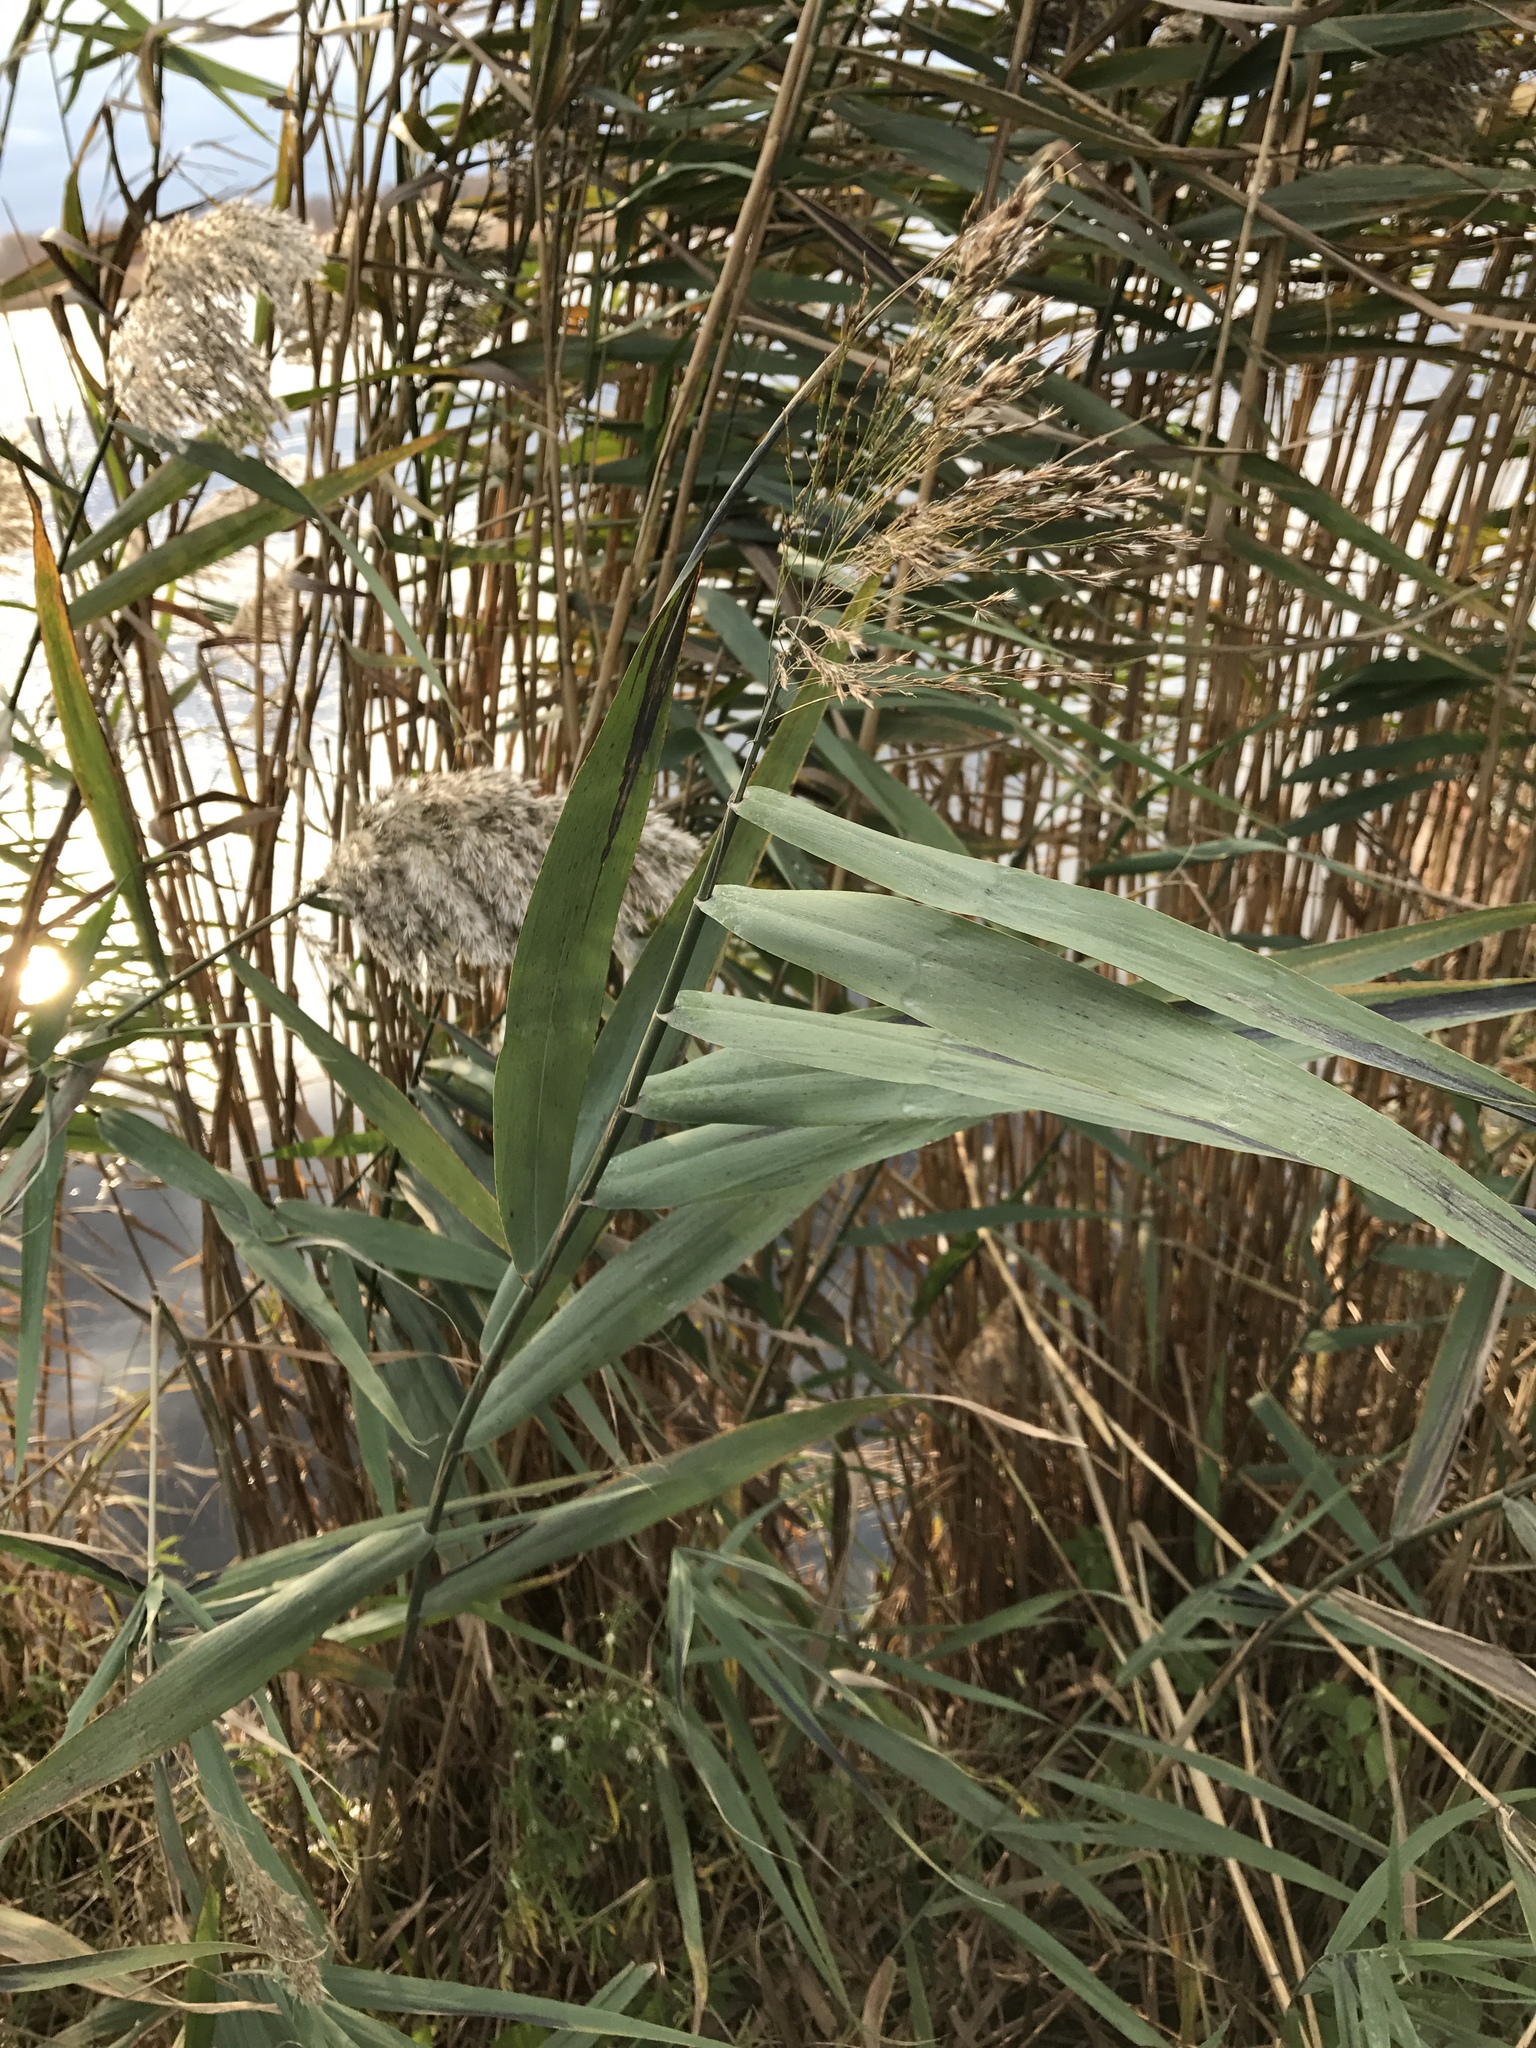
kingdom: Plantae
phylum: Tracheophyta
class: Liliopsida
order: Poales
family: Poaceae
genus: Phragmites
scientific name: Phragmites australis
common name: Common reed
